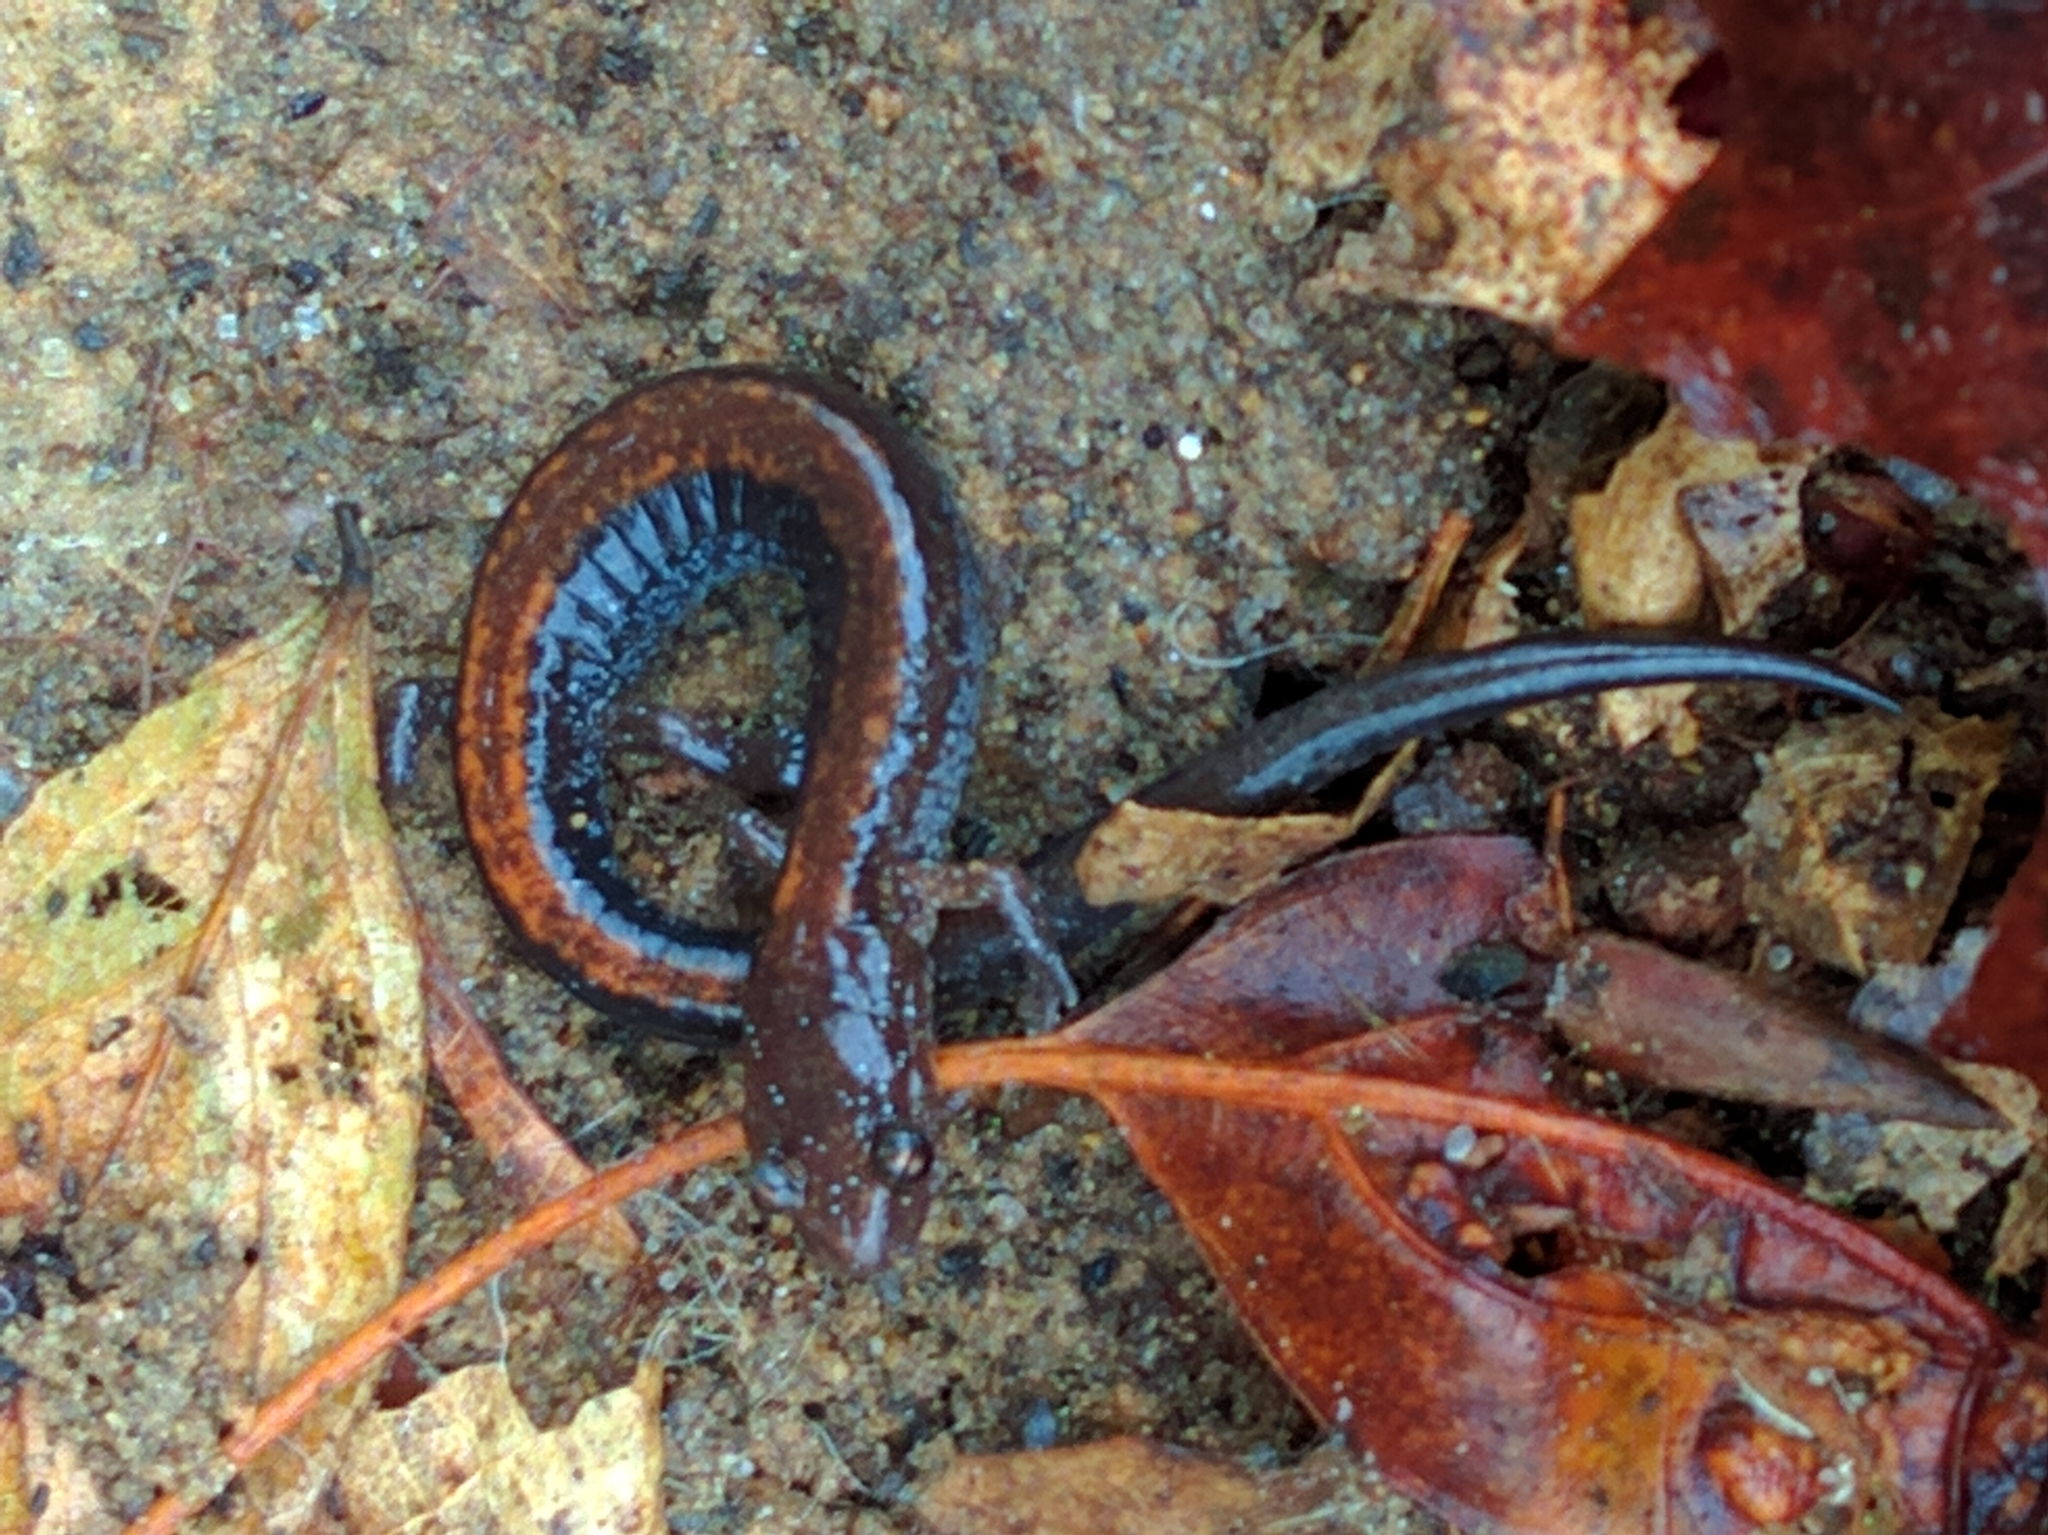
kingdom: Animalia
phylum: Chordata
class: Amphibia
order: Caudata
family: Plethodontidae
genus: Plethodon
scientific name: Plethodon cinereus
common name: Redback salamander
